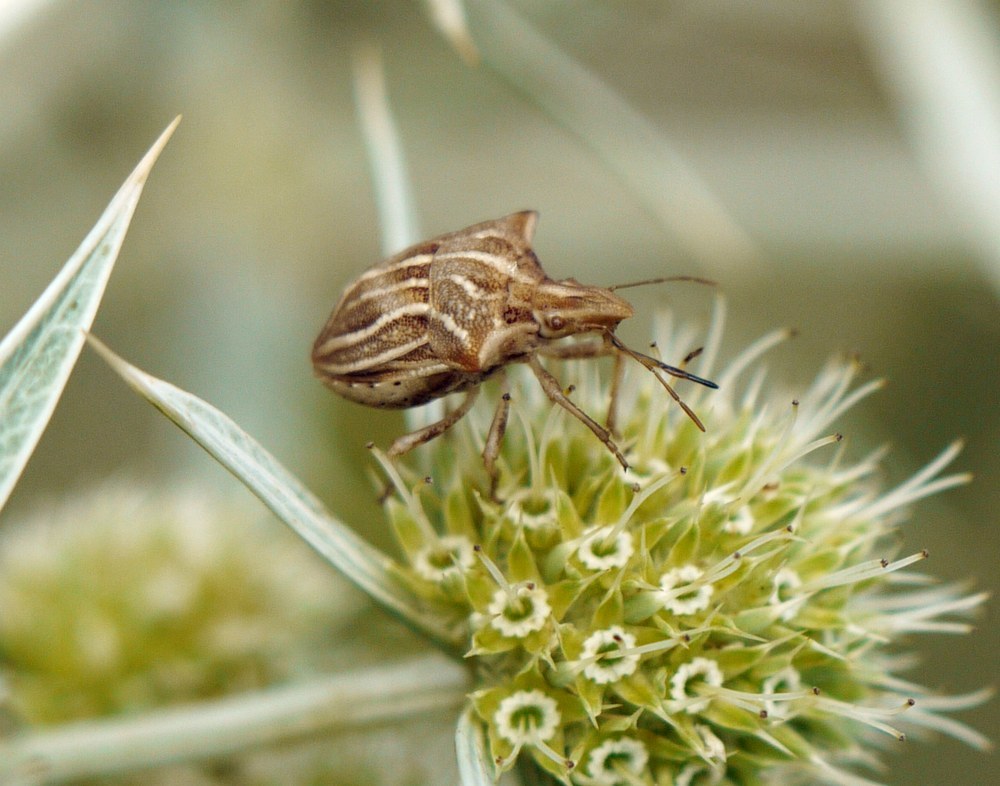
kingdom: Animalia
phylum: Arthropoda
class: Insecta
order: Hemiptera
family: Pentatomidae
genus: Ancyrosoma
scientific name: Ancyrosoma leucogrammes
